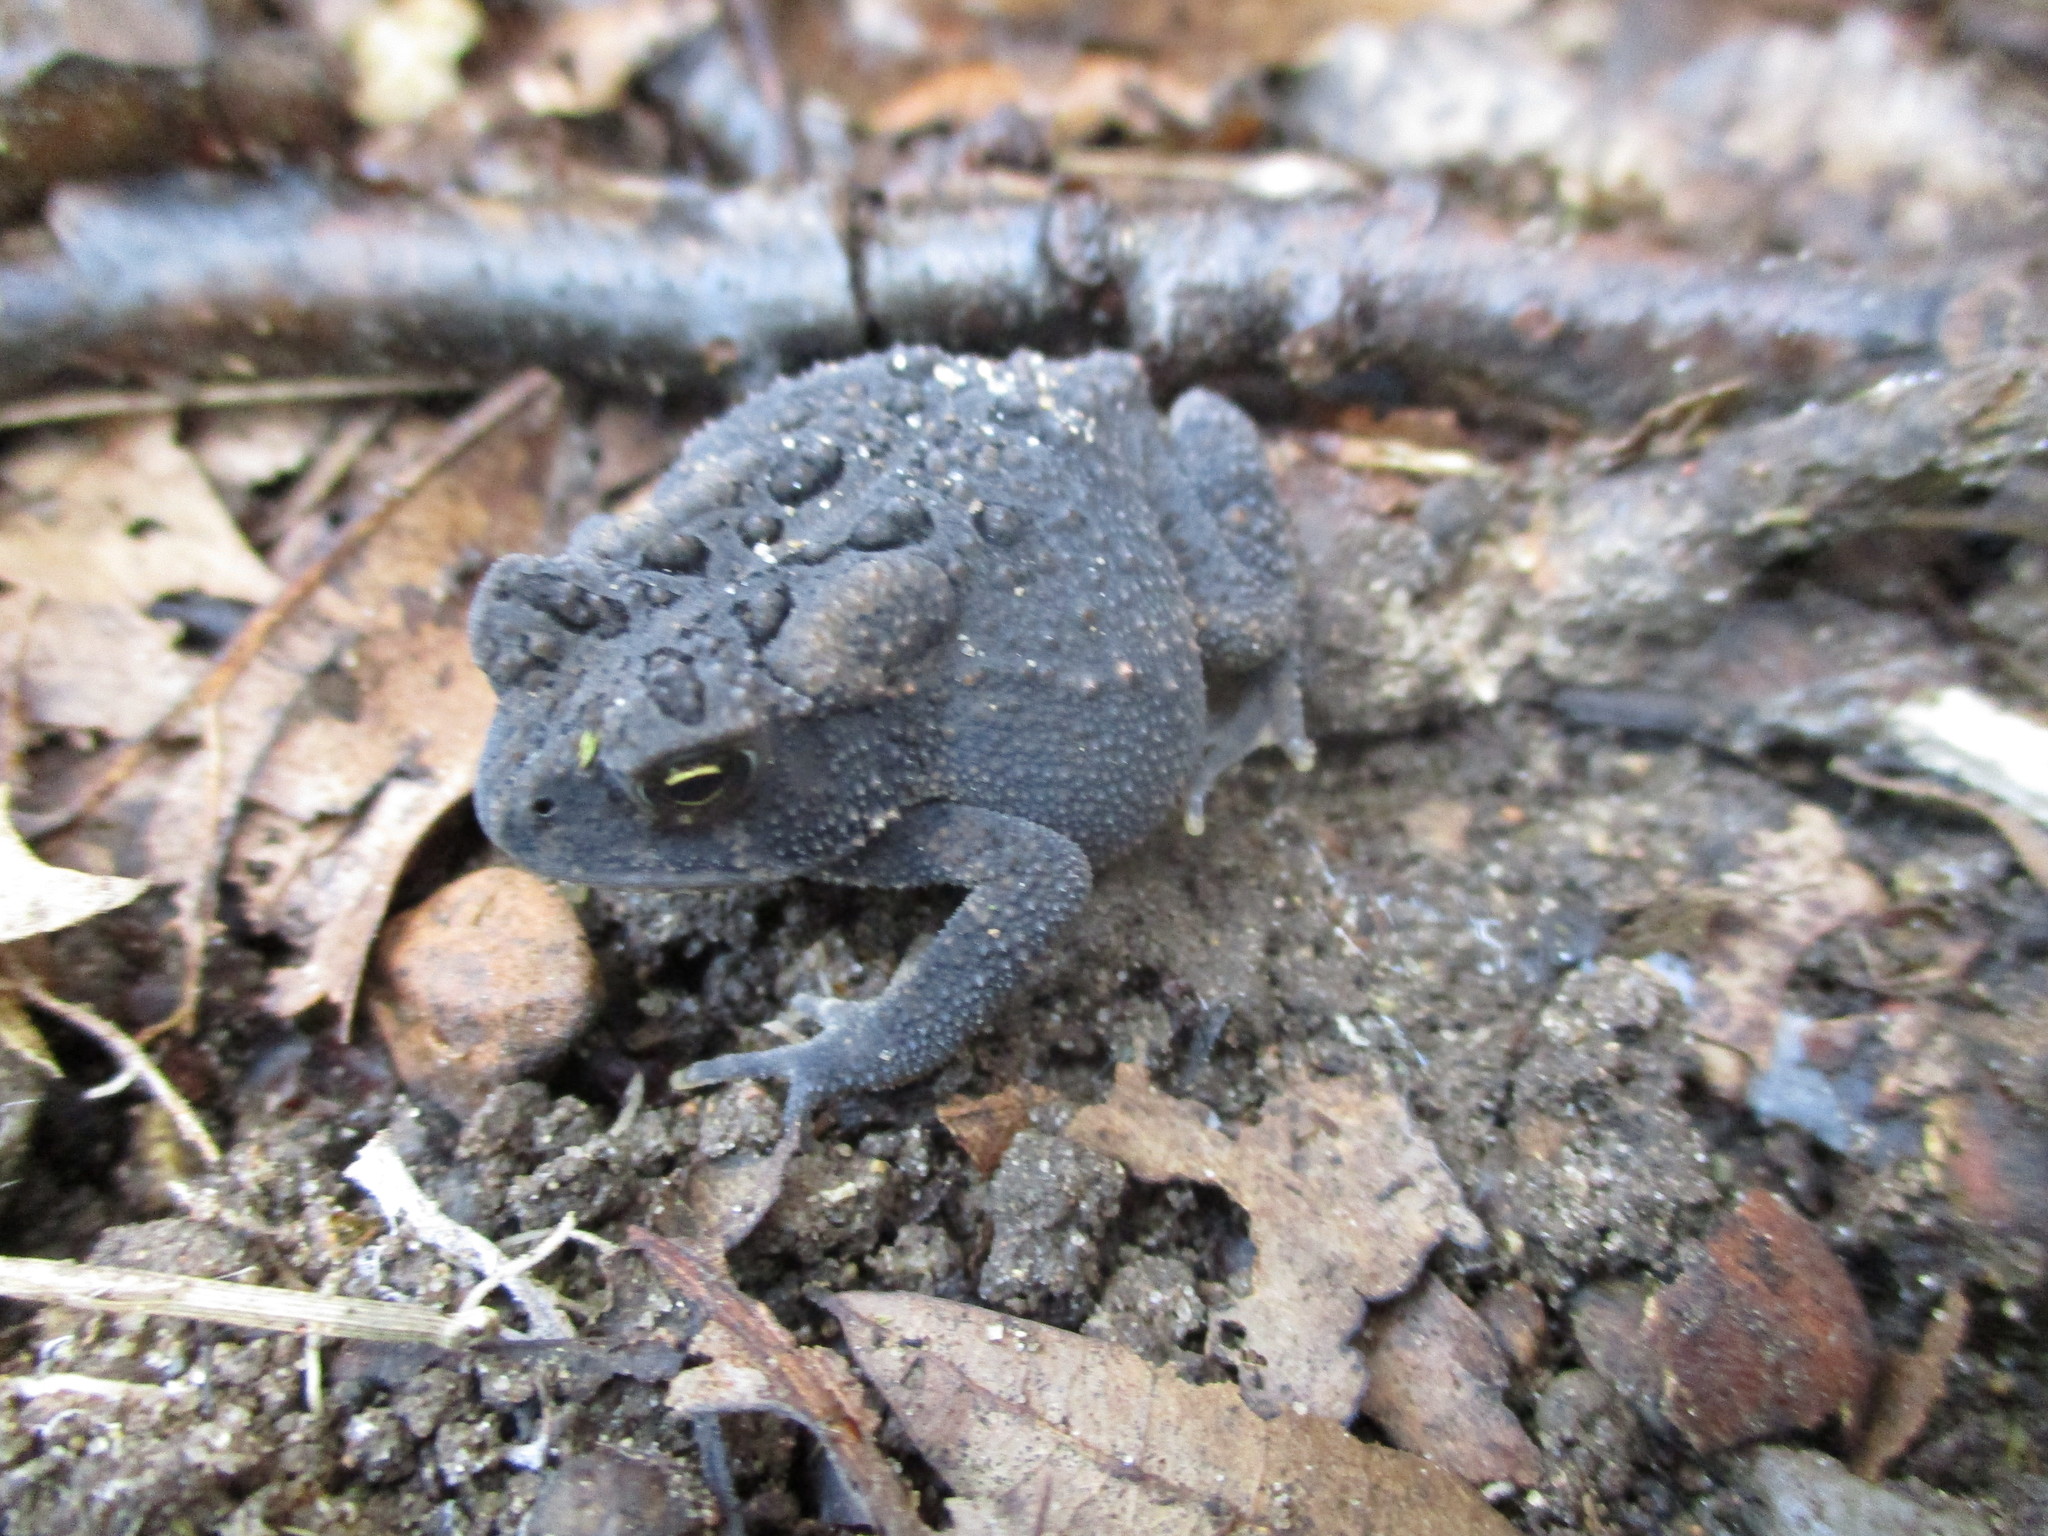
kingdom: Animalia
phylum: Chordata
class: Amphibia
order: Anura
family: Bufonidae
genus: Anaxyrus
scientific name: Anaxyrus americanus
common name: American toad
